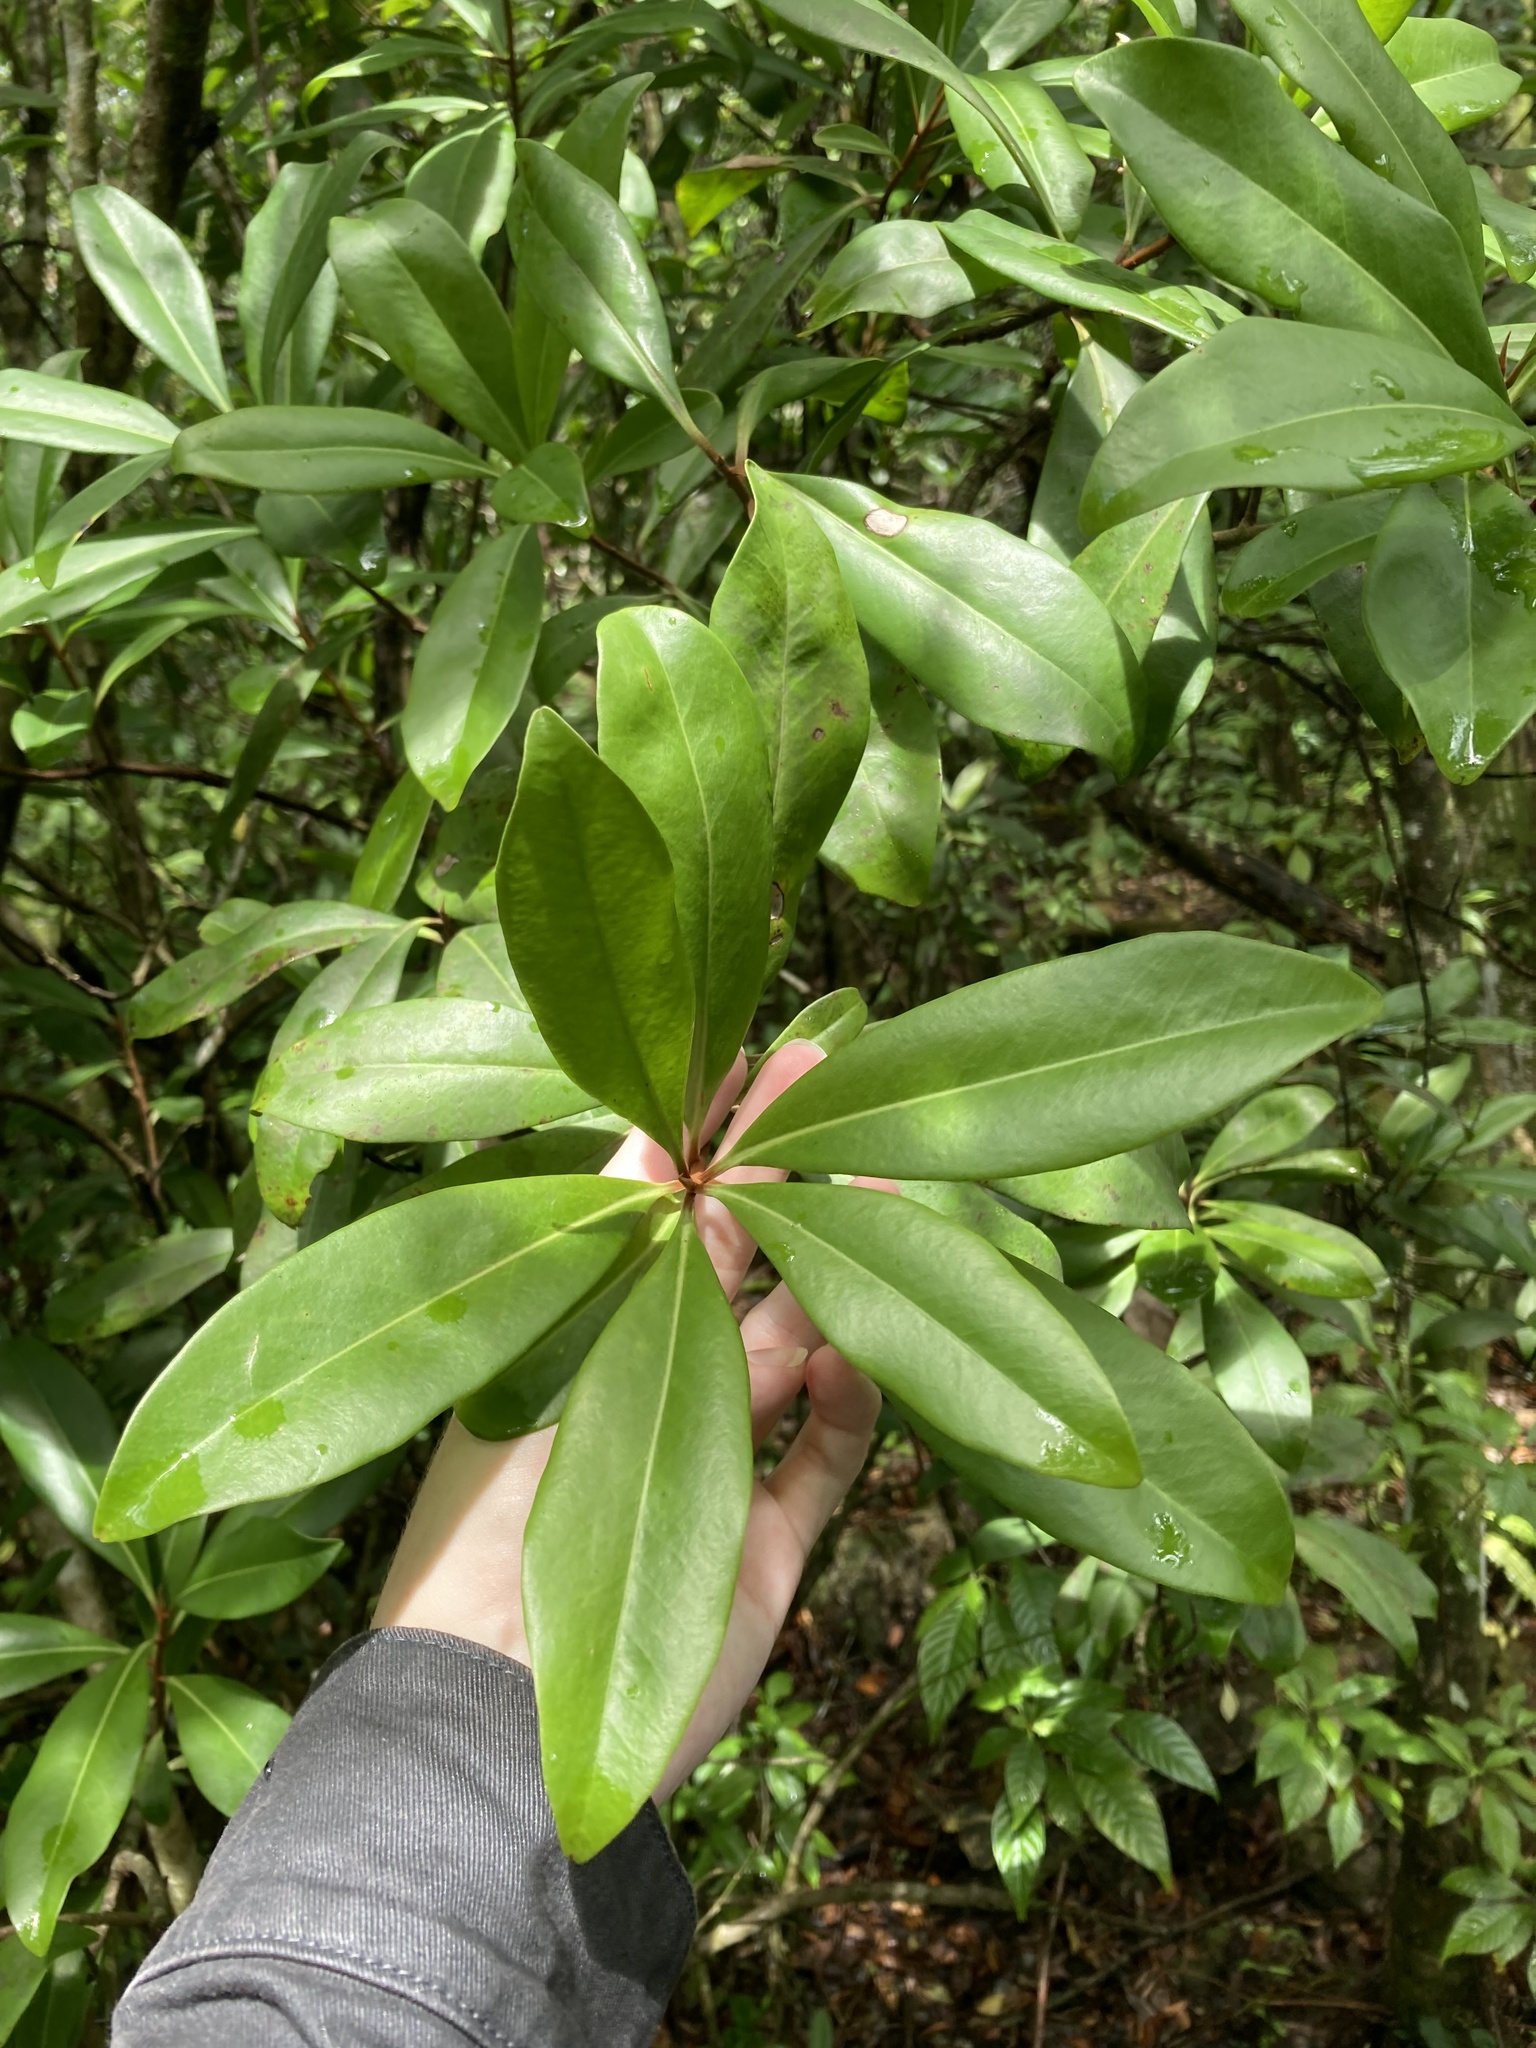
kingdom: Plantae
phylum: Tracheophyta
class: Magnoliopsida
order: Ericales
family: Primulaceae
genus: Ardisia
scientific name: Ardisia escallonioides
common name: Island marlberry
